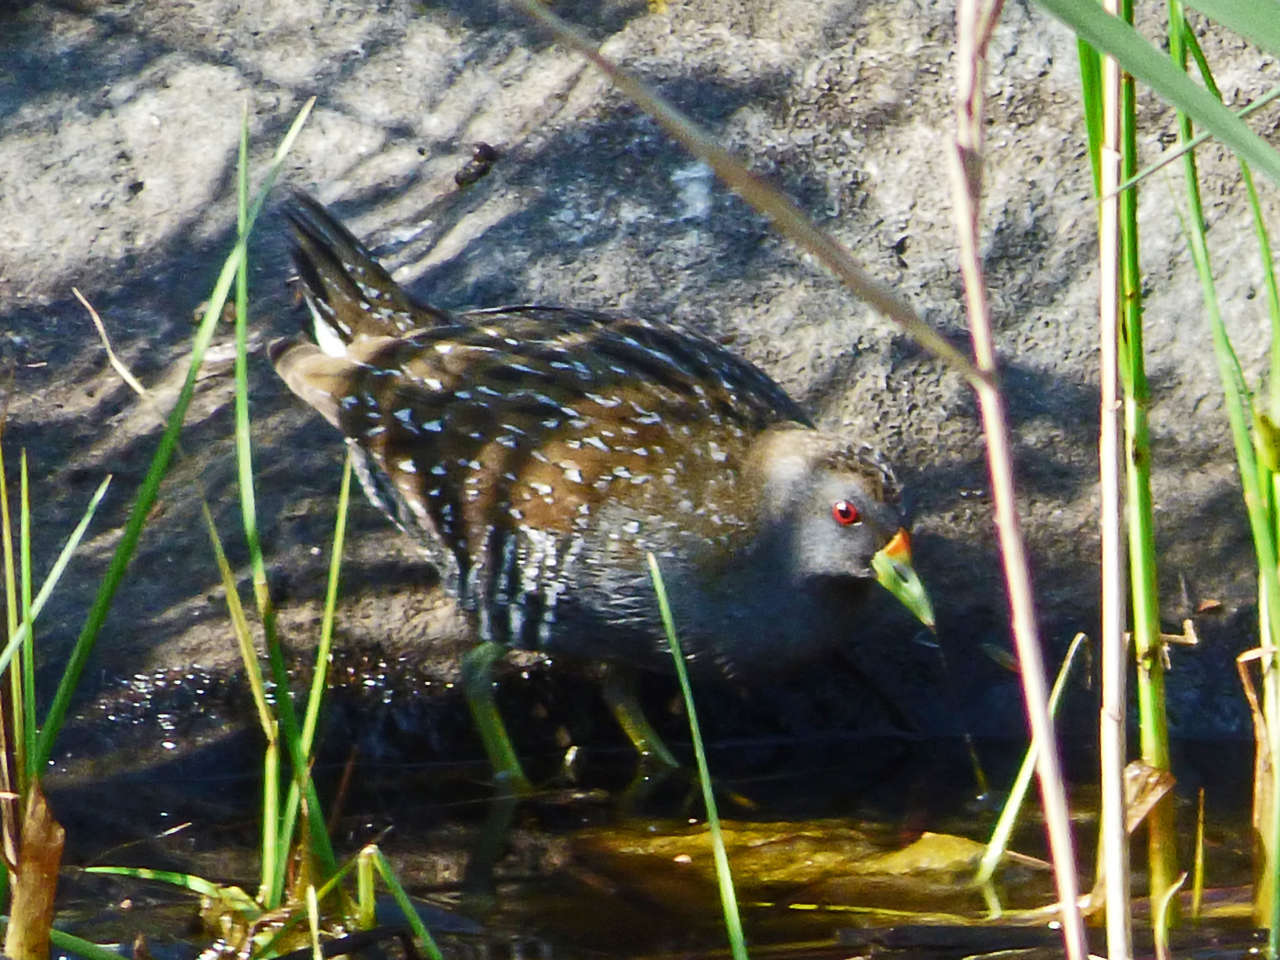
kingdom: Animalia
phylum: Chordata
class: Aves
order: Gruiformes
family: Rallidae
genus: Porzana
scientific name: Porzana fluminea
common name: Australian crake
